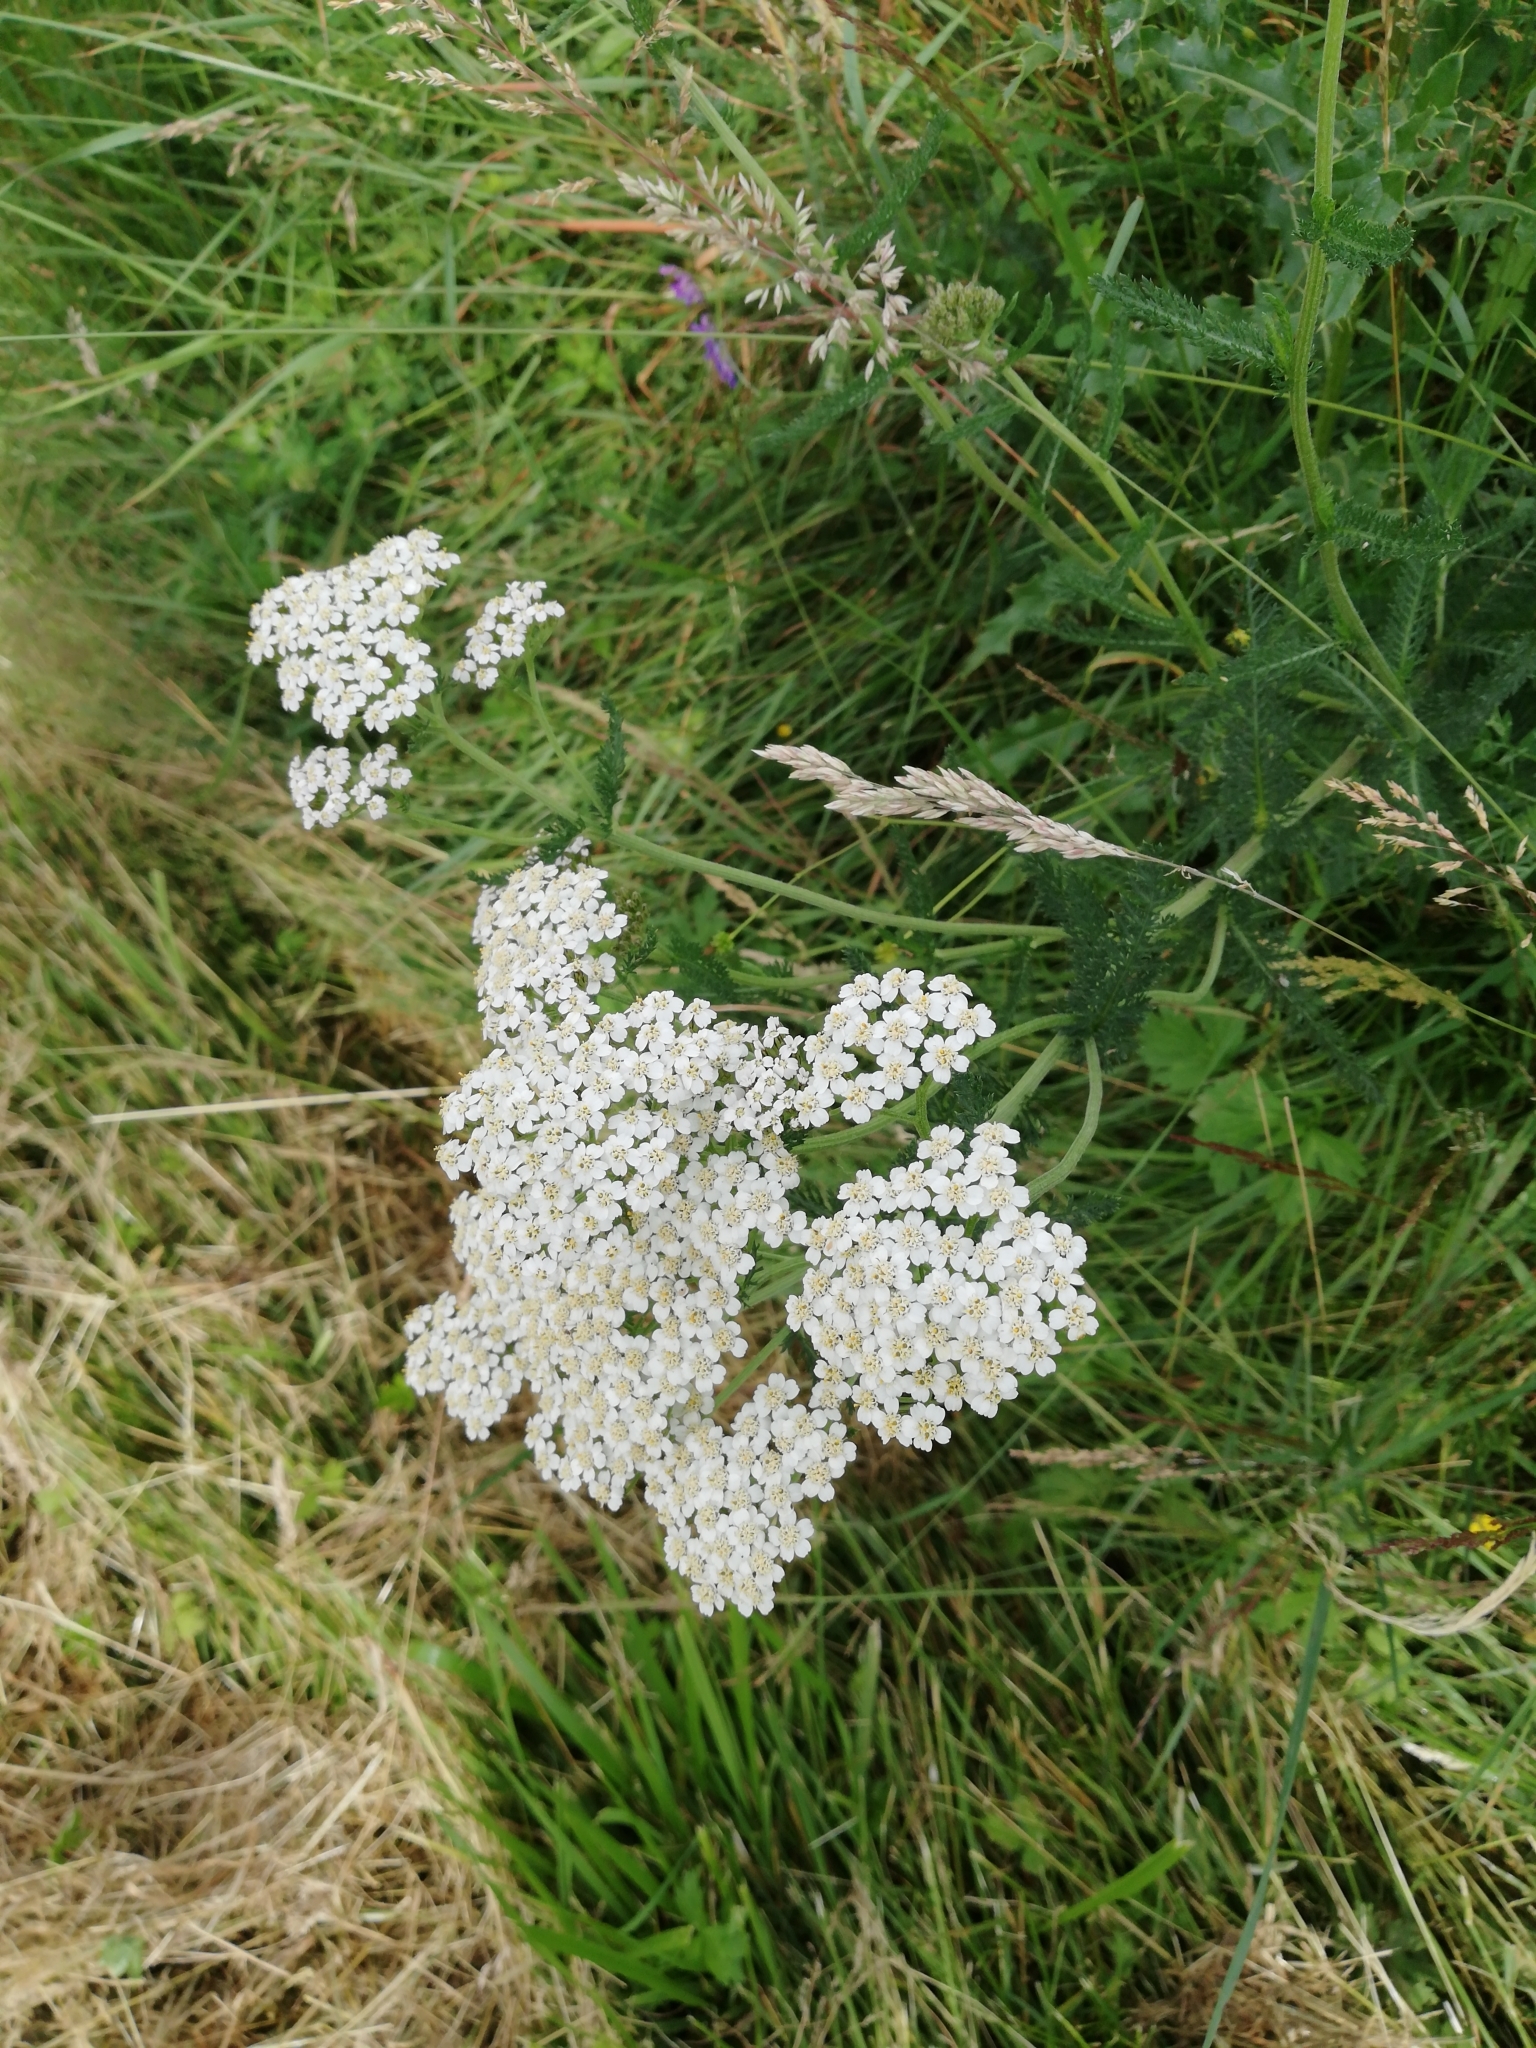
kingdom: Plantae
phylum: Tracheophyta
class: Magnoliopsida
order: Asterales
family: Asteraceae
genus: Achillea
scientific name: Achillea millefolium
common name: Yarrow
